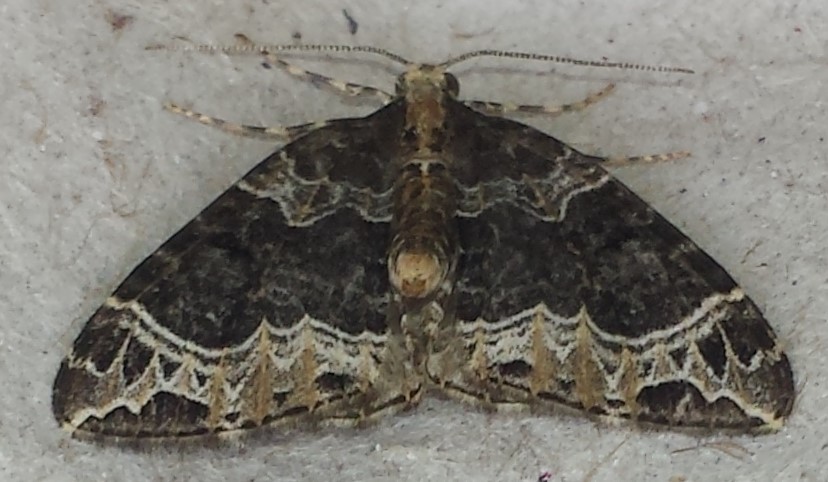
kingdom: Animalia
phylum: Arthropoda
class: Insecta
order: Lepidoptera
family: Geometridae
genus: Ecliptopera
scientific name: Ecliptopera silaceata
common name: Small phoenix
